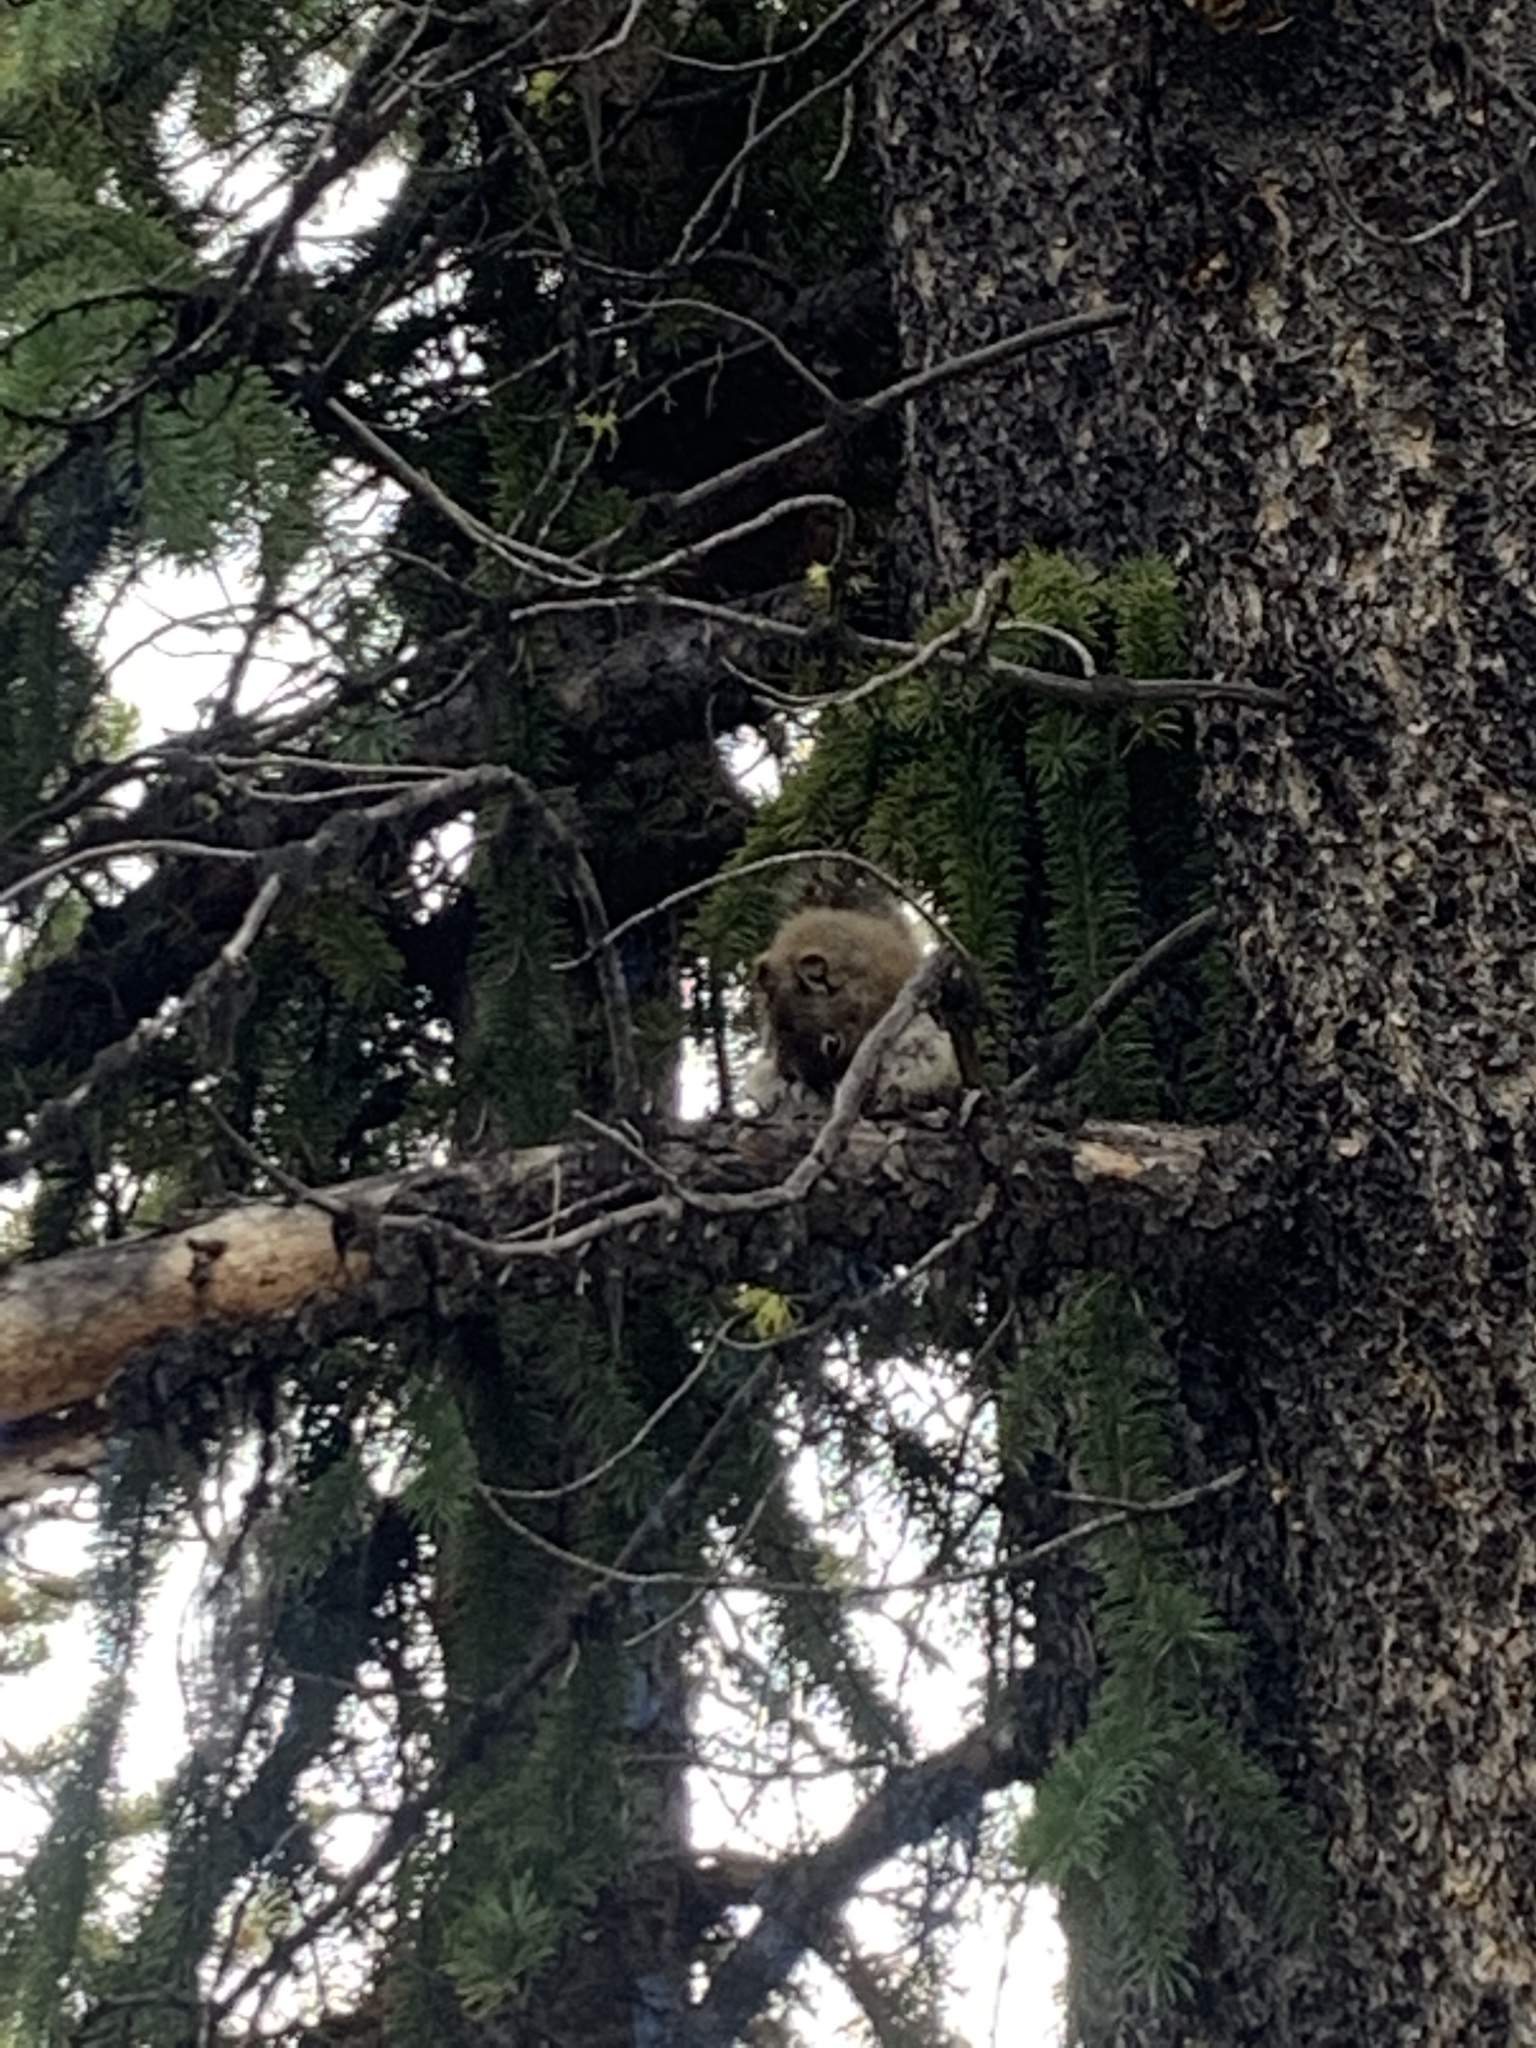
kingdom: Animalia
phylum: Chordata
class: Mammalia
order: Rodentia
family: Sciuridae
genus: Tamiasciurus
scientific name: Tamiasciurus hudsonicus
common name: Red squirrel
